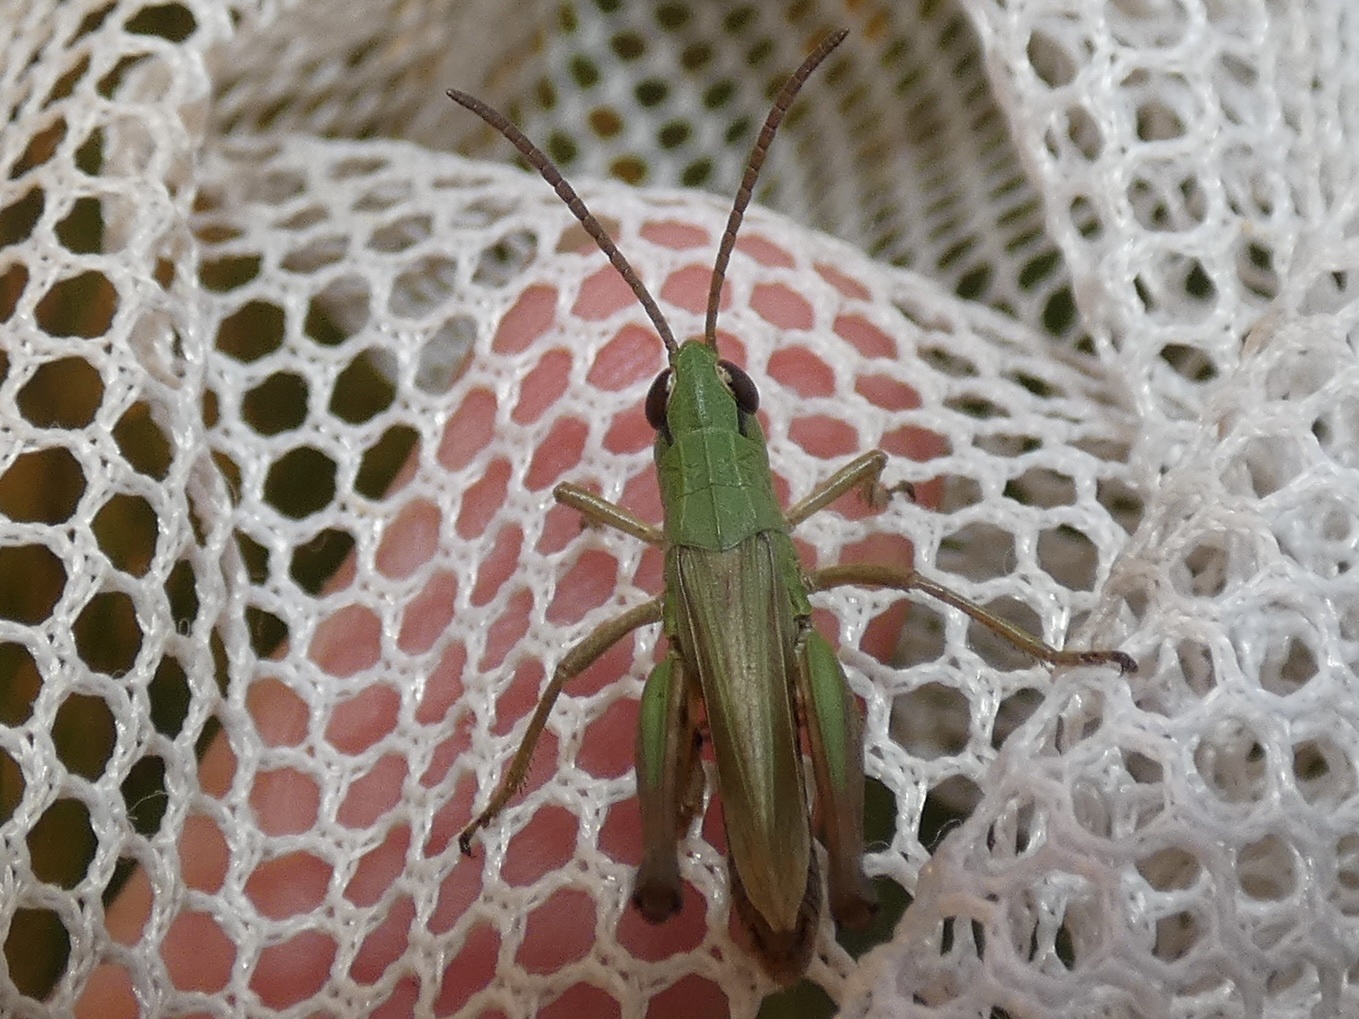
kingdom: Animalia
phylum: Arthropoda
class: Insecta
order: Orthoptera
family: Acrididae
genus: Pseudochorthippus
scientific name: Pseudochorthippus parallelus
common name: Meadow grasshopper
